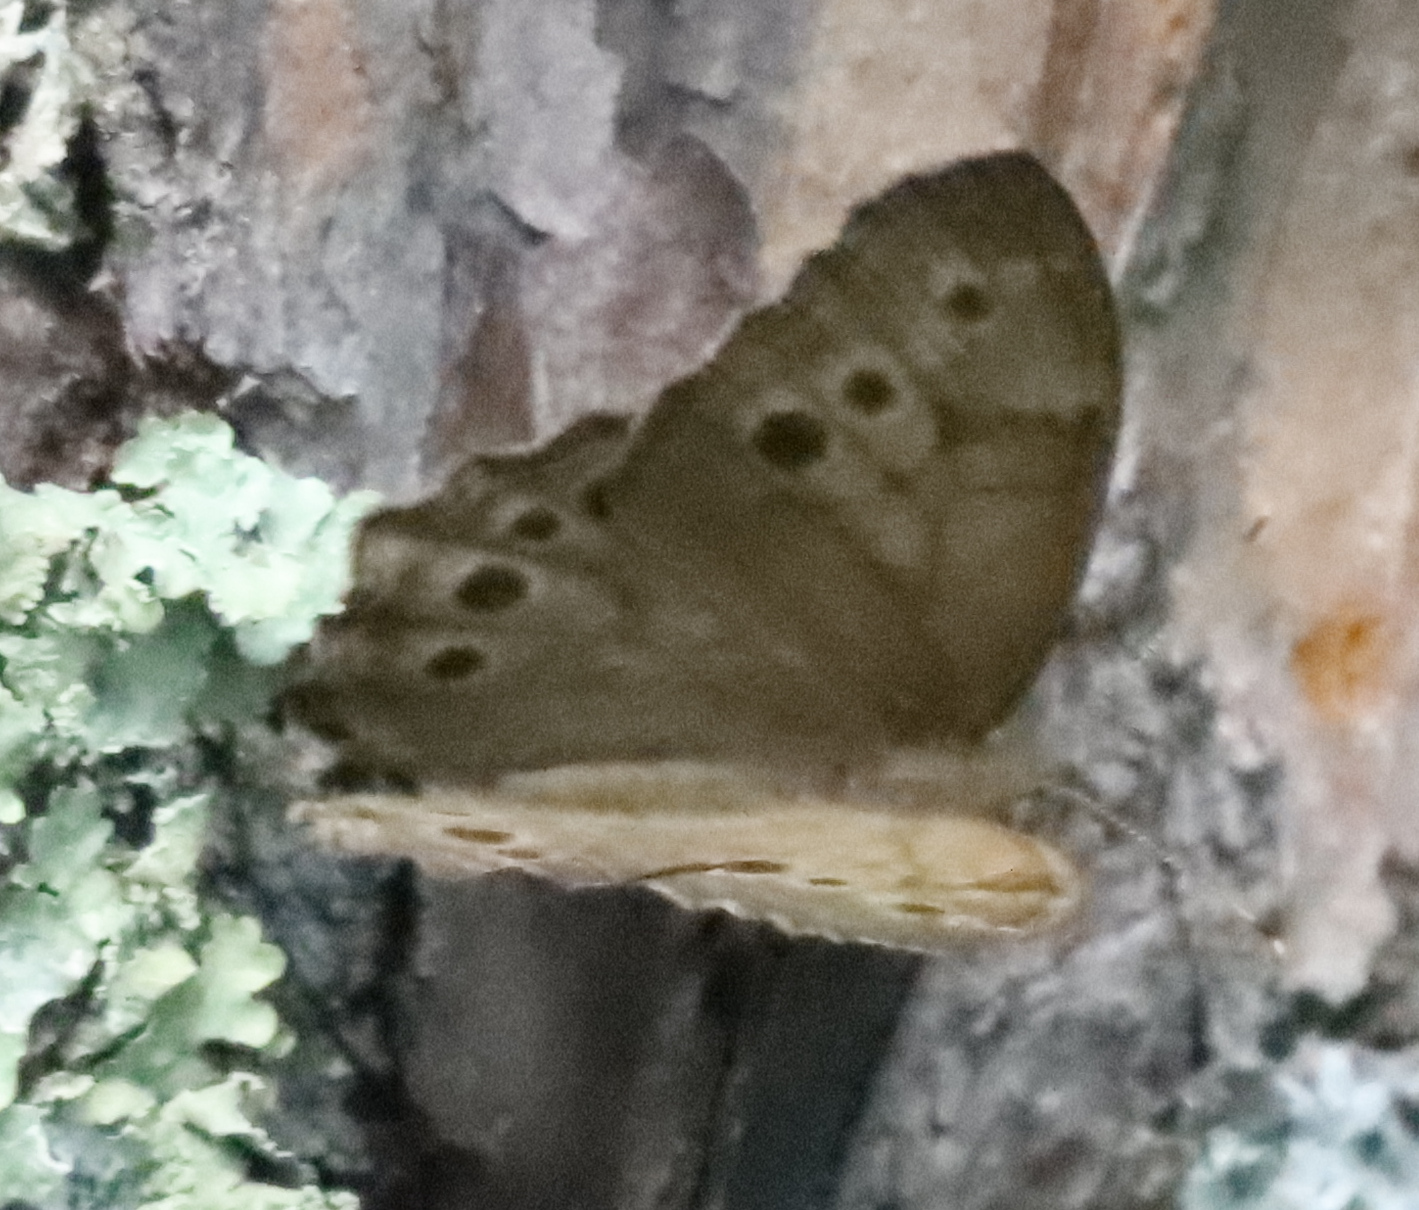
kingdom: Animalia
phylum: Arthropoda
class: Insecta
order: Lepidoptera
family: Nymphalidae
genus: Lethe
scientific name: Lethe anthedon
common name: Northern pearly-eye
